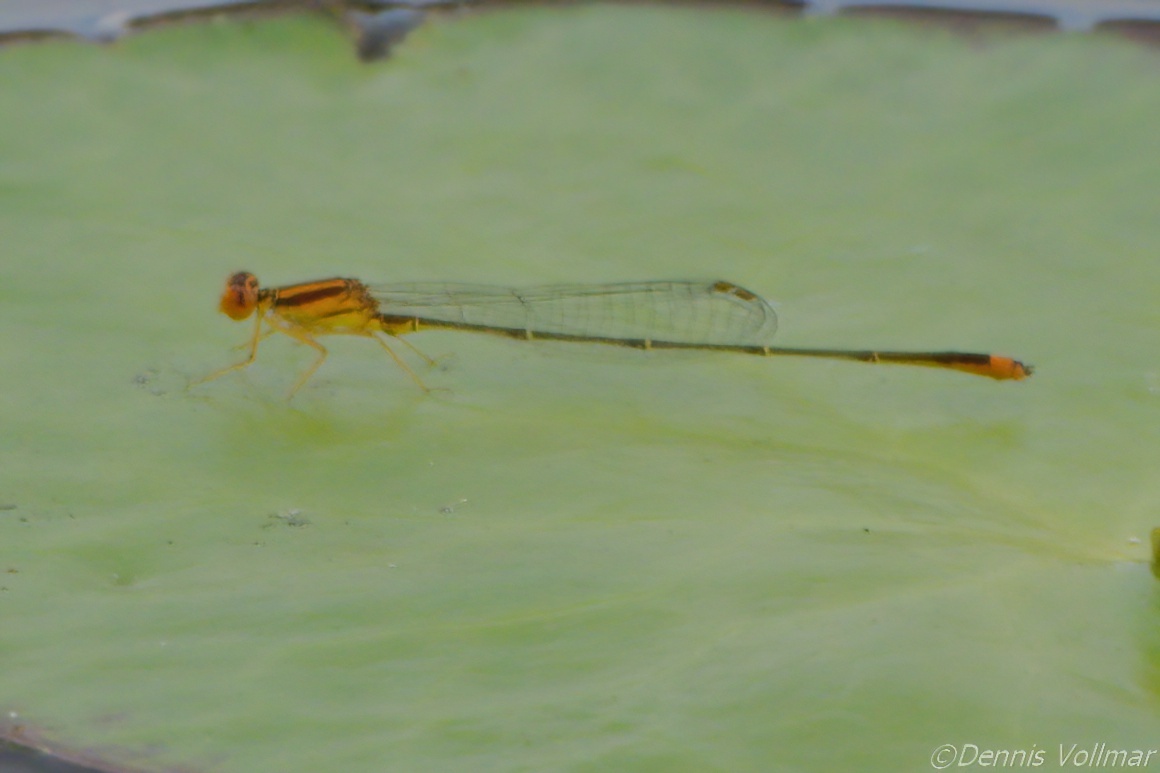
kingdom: Animalia
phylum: Arthropoda
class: Insecta
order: Odonata
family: Coenagrionidae
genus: Enallagma
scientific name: Enallagma pollutum
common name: Florida bluet
